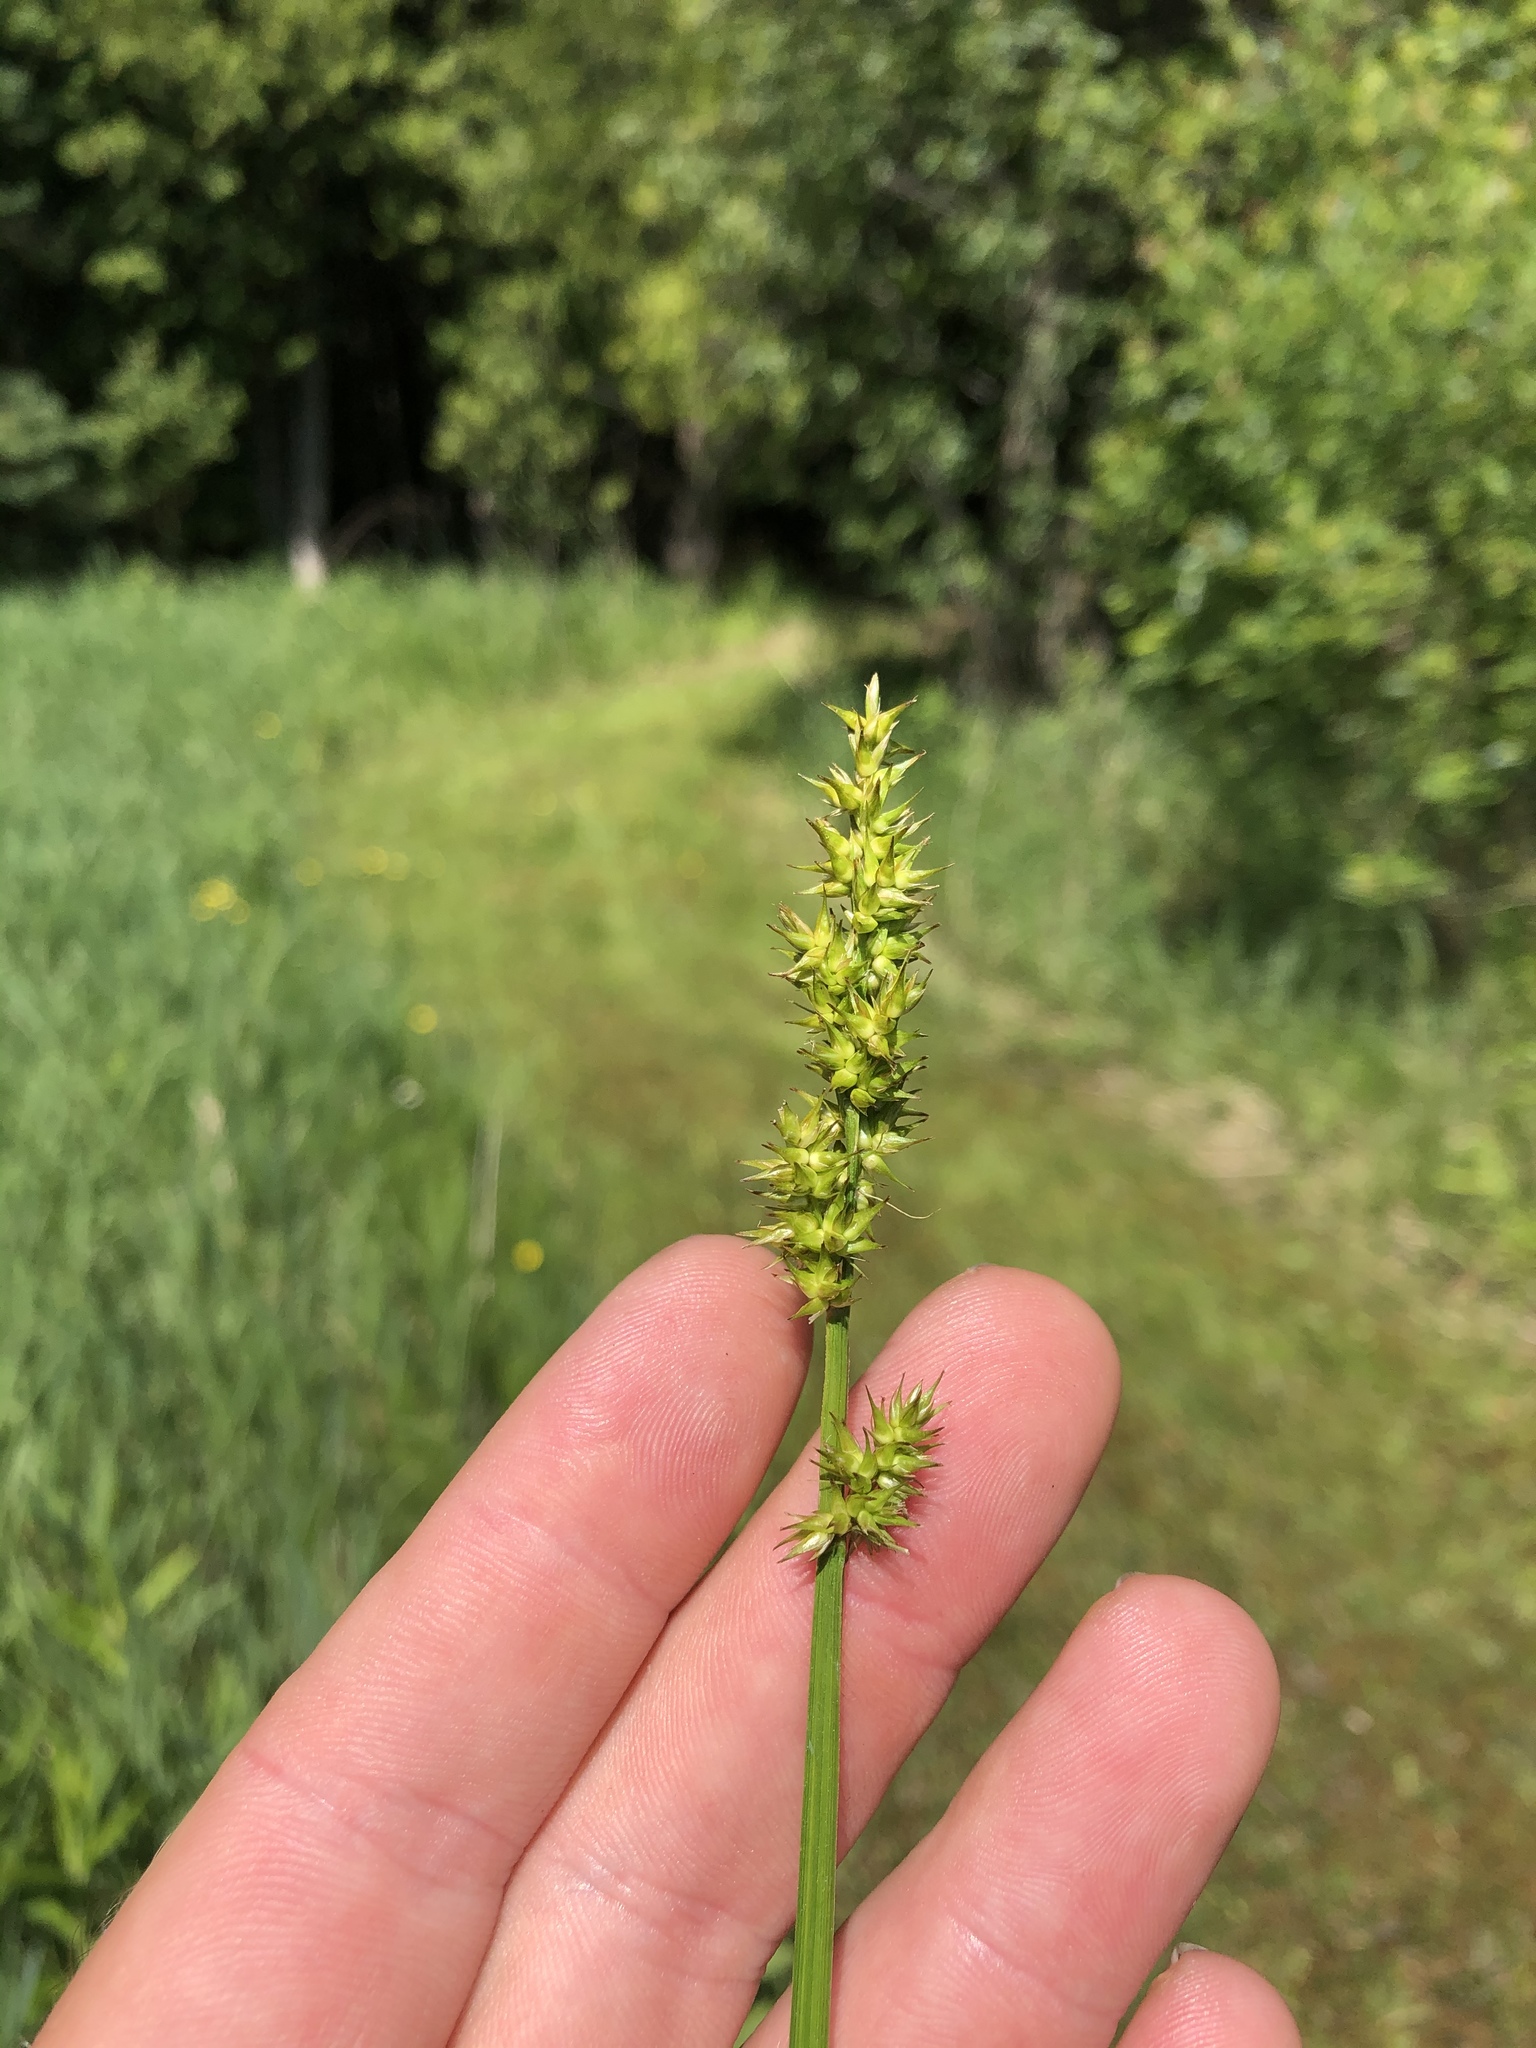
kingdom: Plantae
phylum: Tracheophyta
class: Liliopsida
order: Poales
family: Cyperaceae
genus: Carex
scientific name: Carex stipata
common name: Awl-fruited sedge
